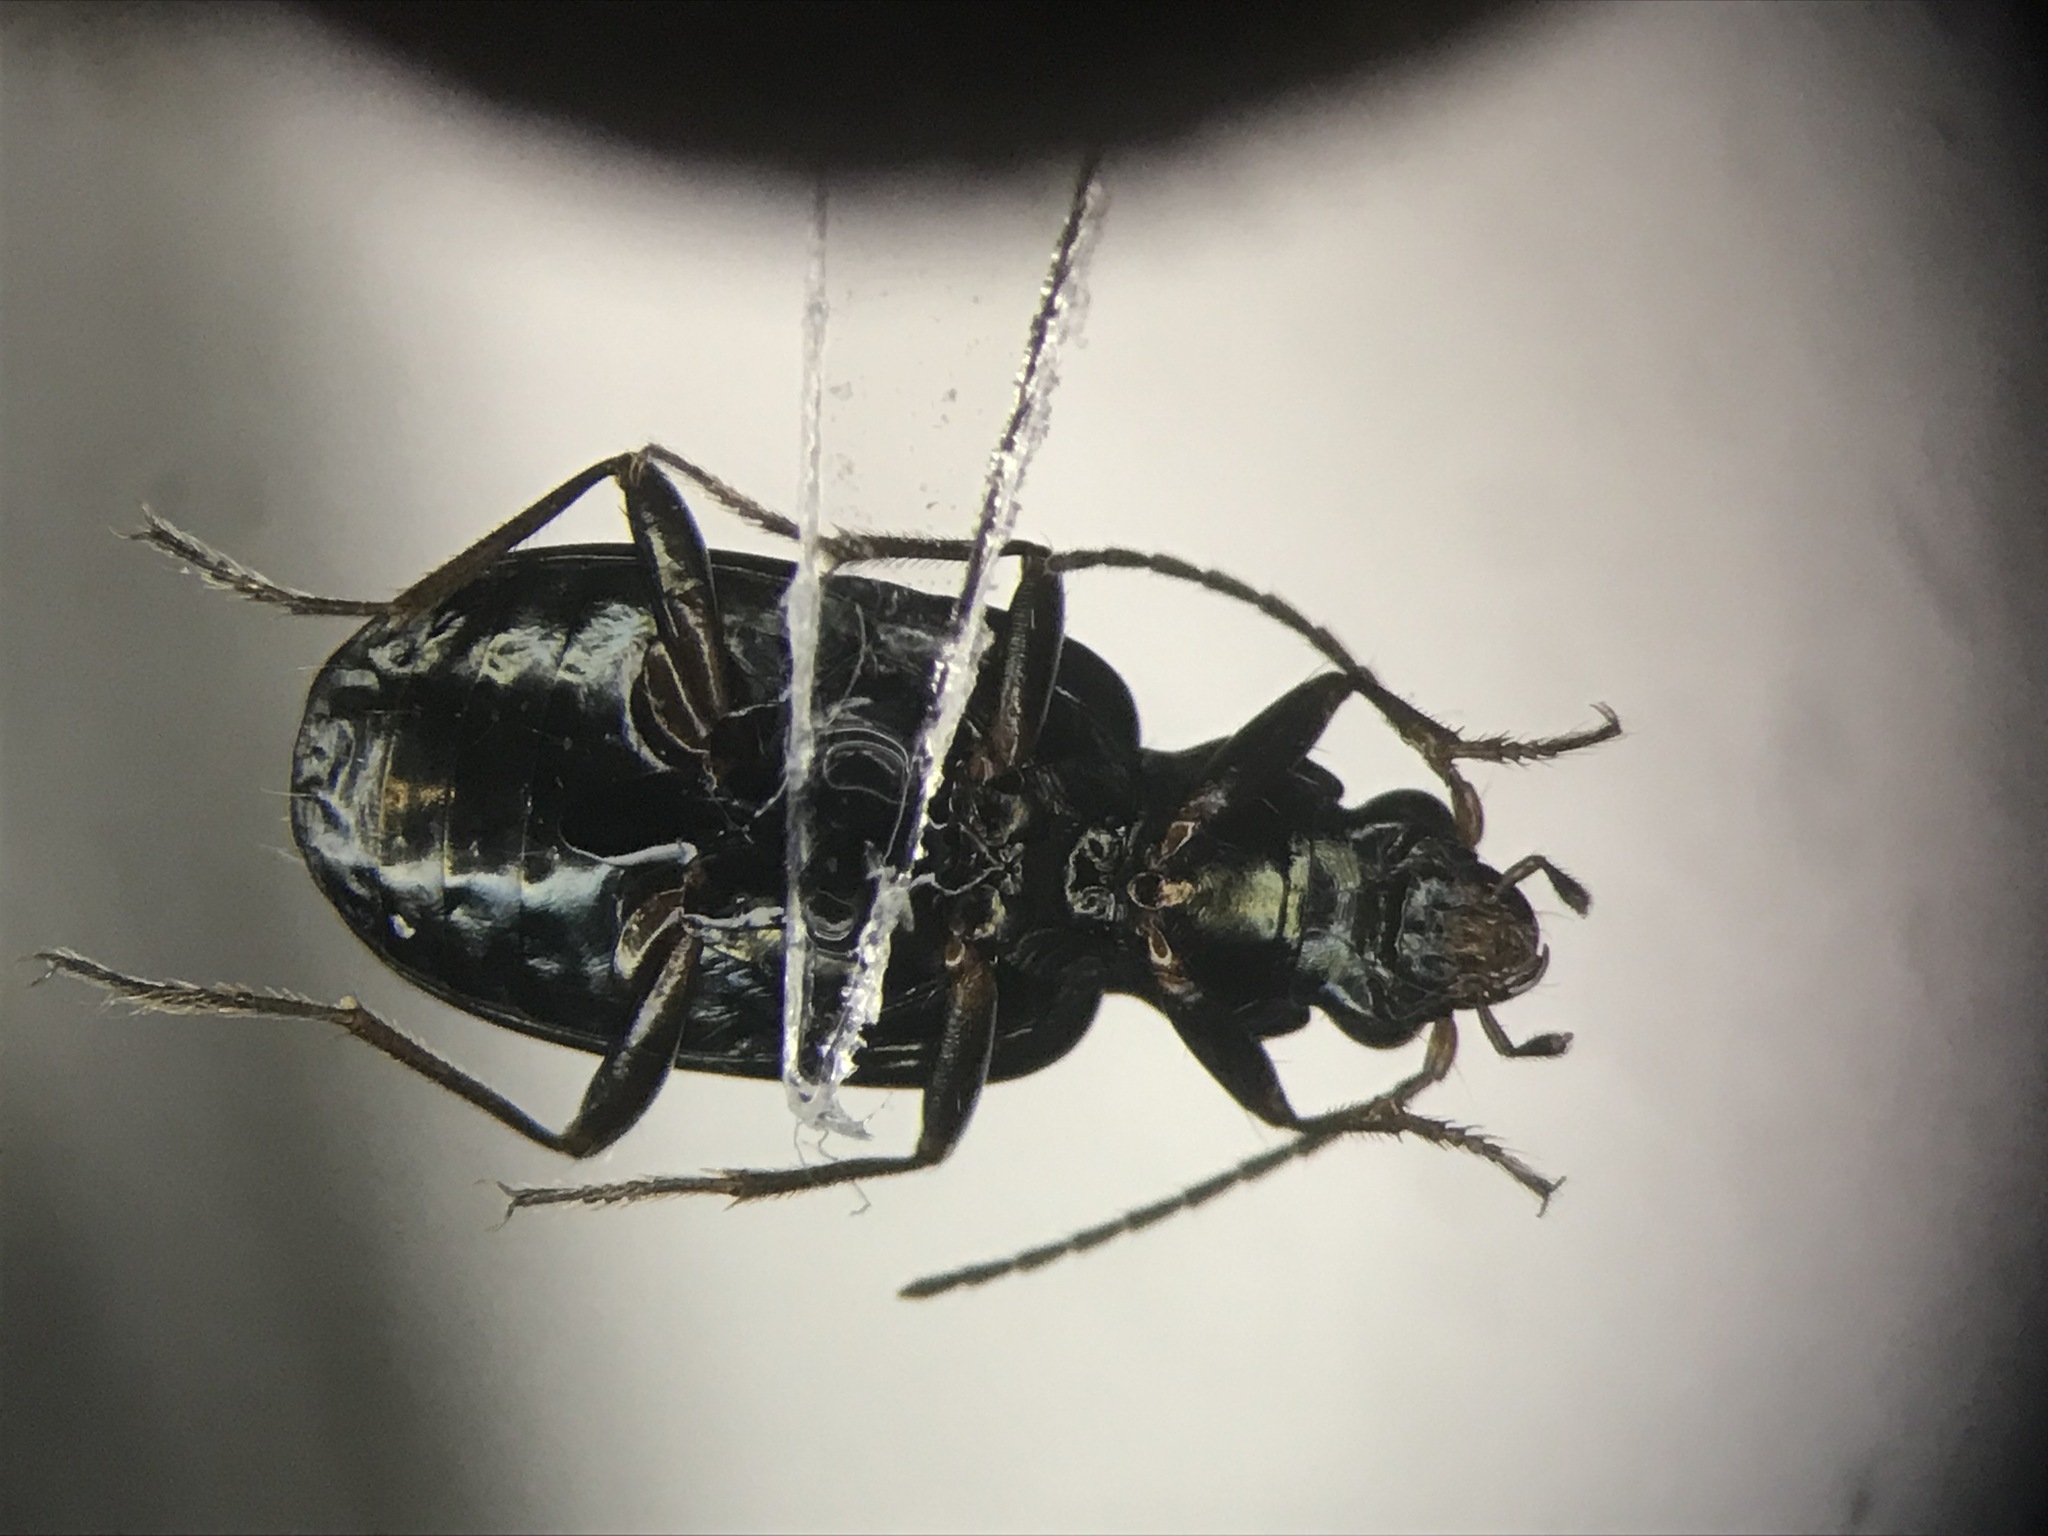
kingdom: Animalia
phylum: Arthropoda
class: Insecta
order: Coleoptera
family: Carabidae
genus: Bembidion
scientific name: Bembidion louisella
